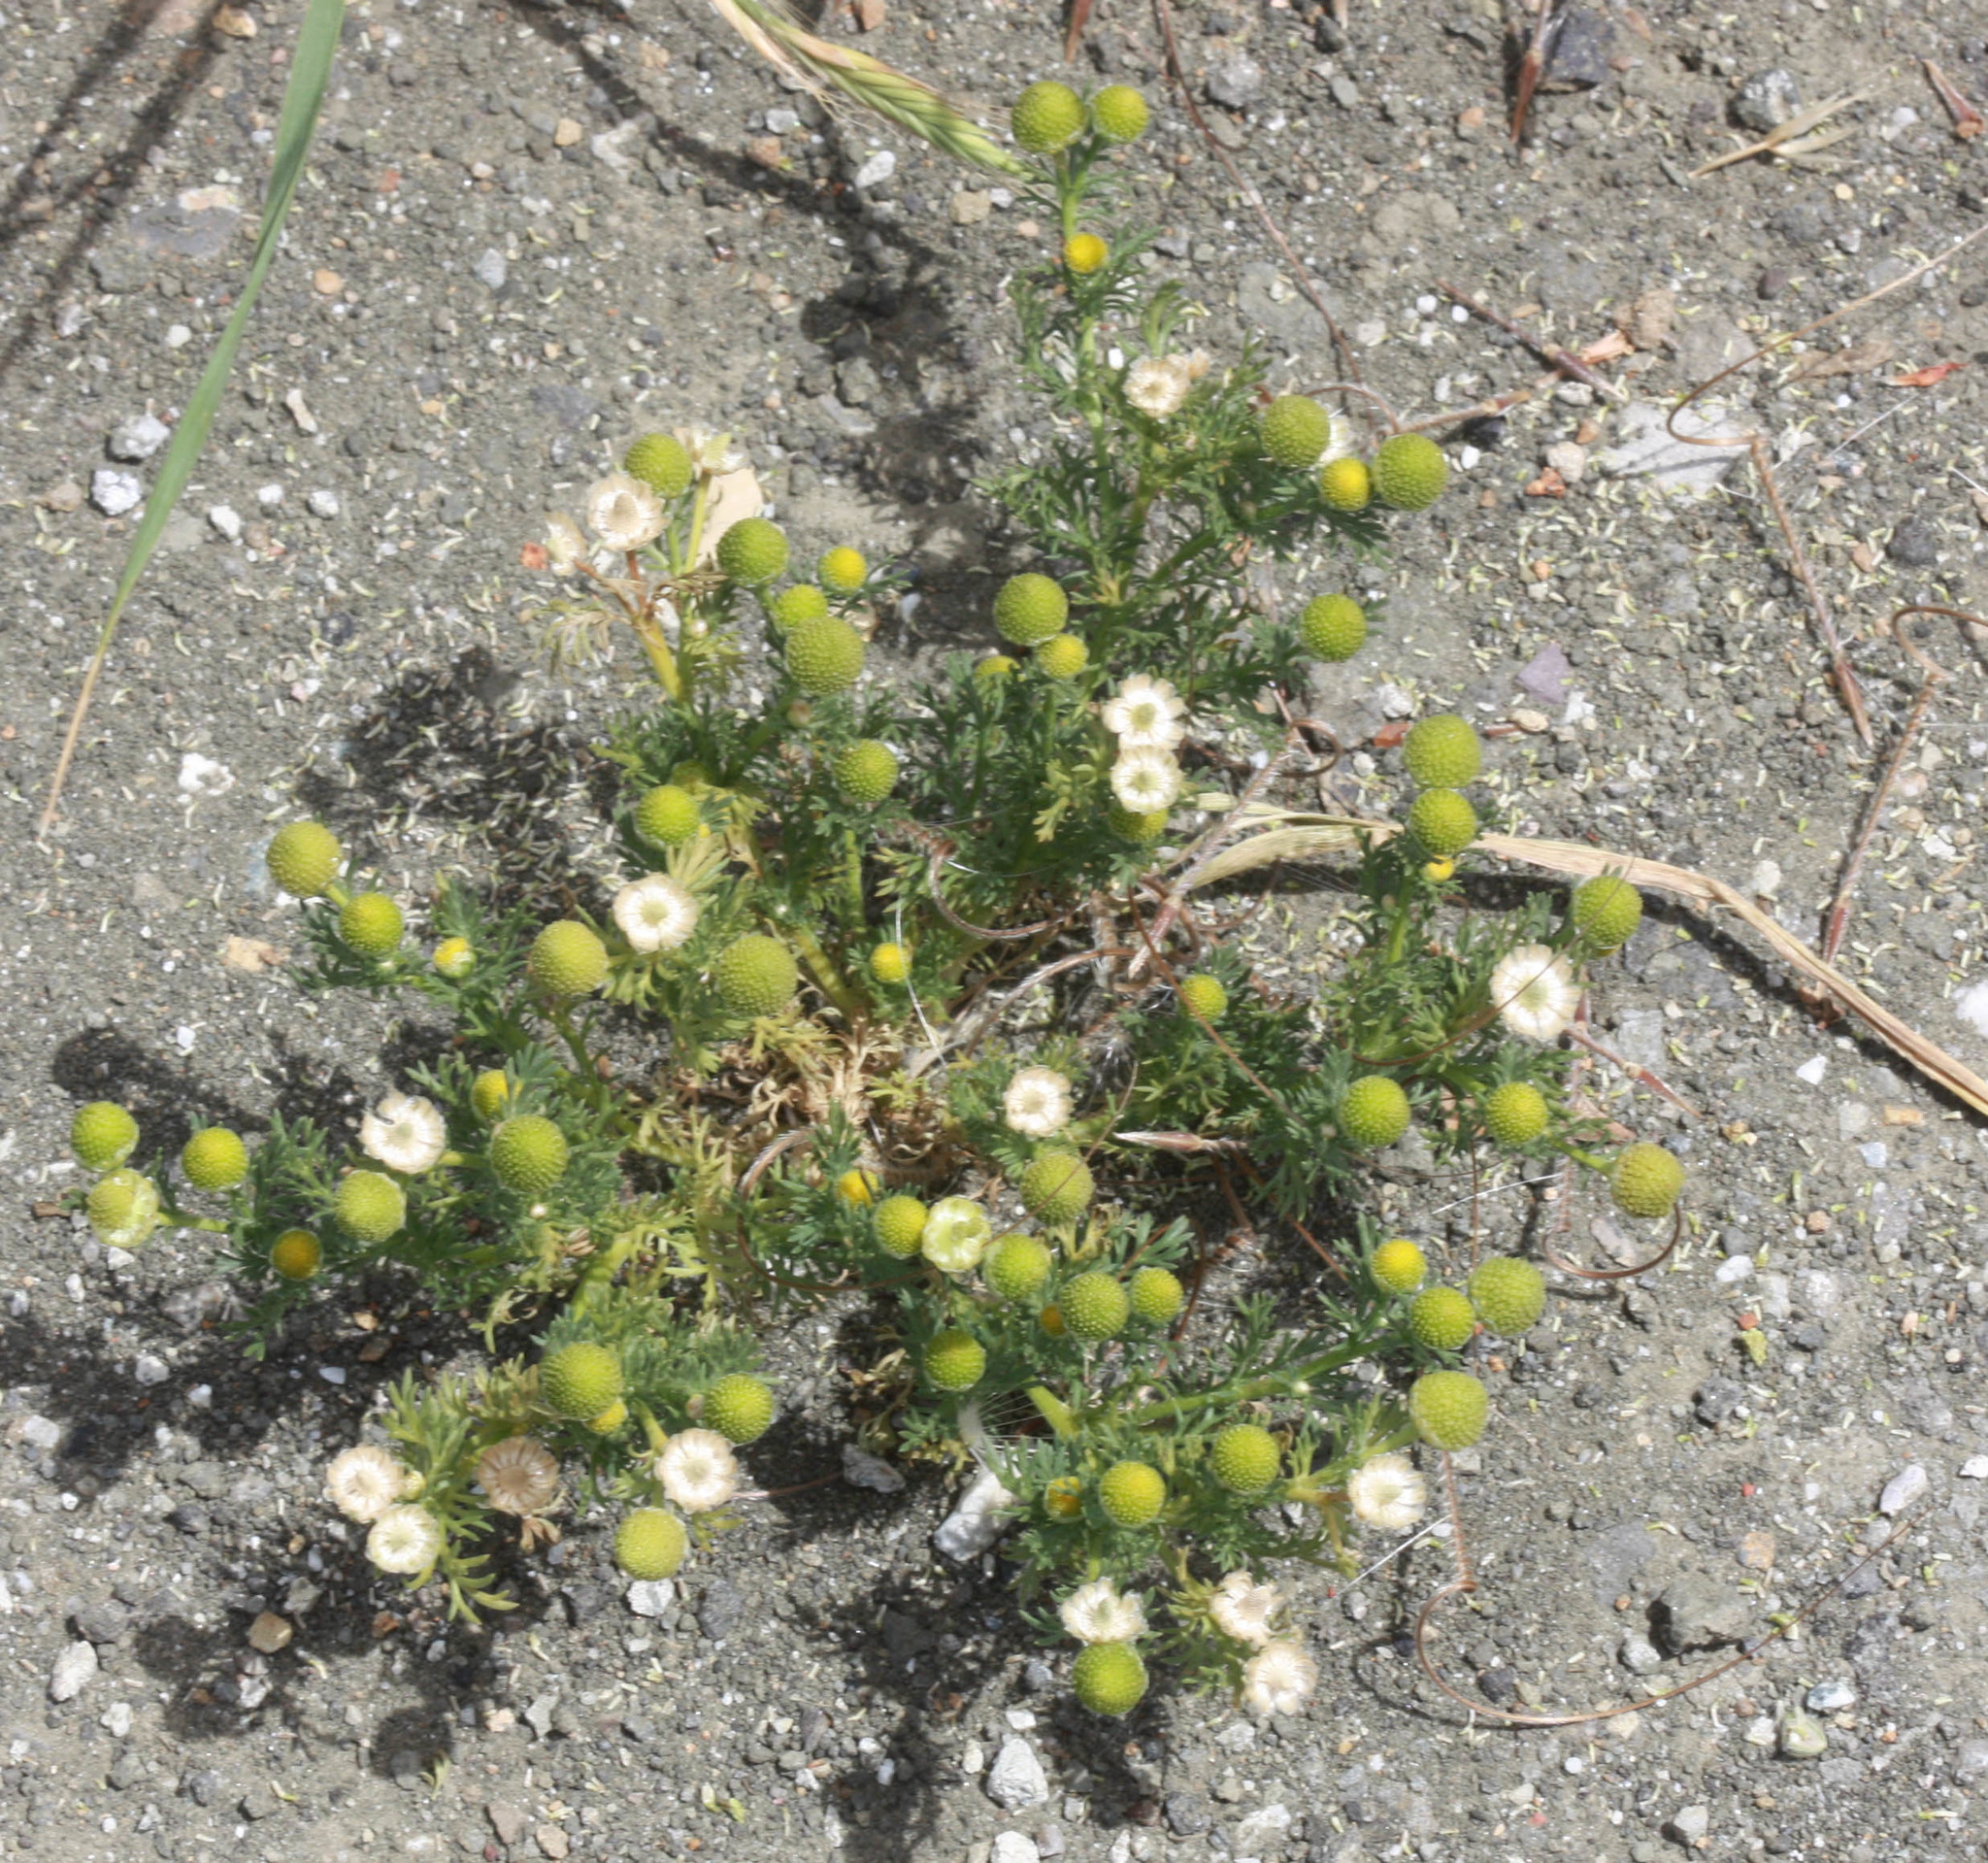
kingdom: Plantae
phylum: Tracheophyta
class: Magnoliopsida
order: Asterales
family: Asteraceae
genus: Matricaria
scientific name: Matricaria discoidea
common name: Disc mayweed
